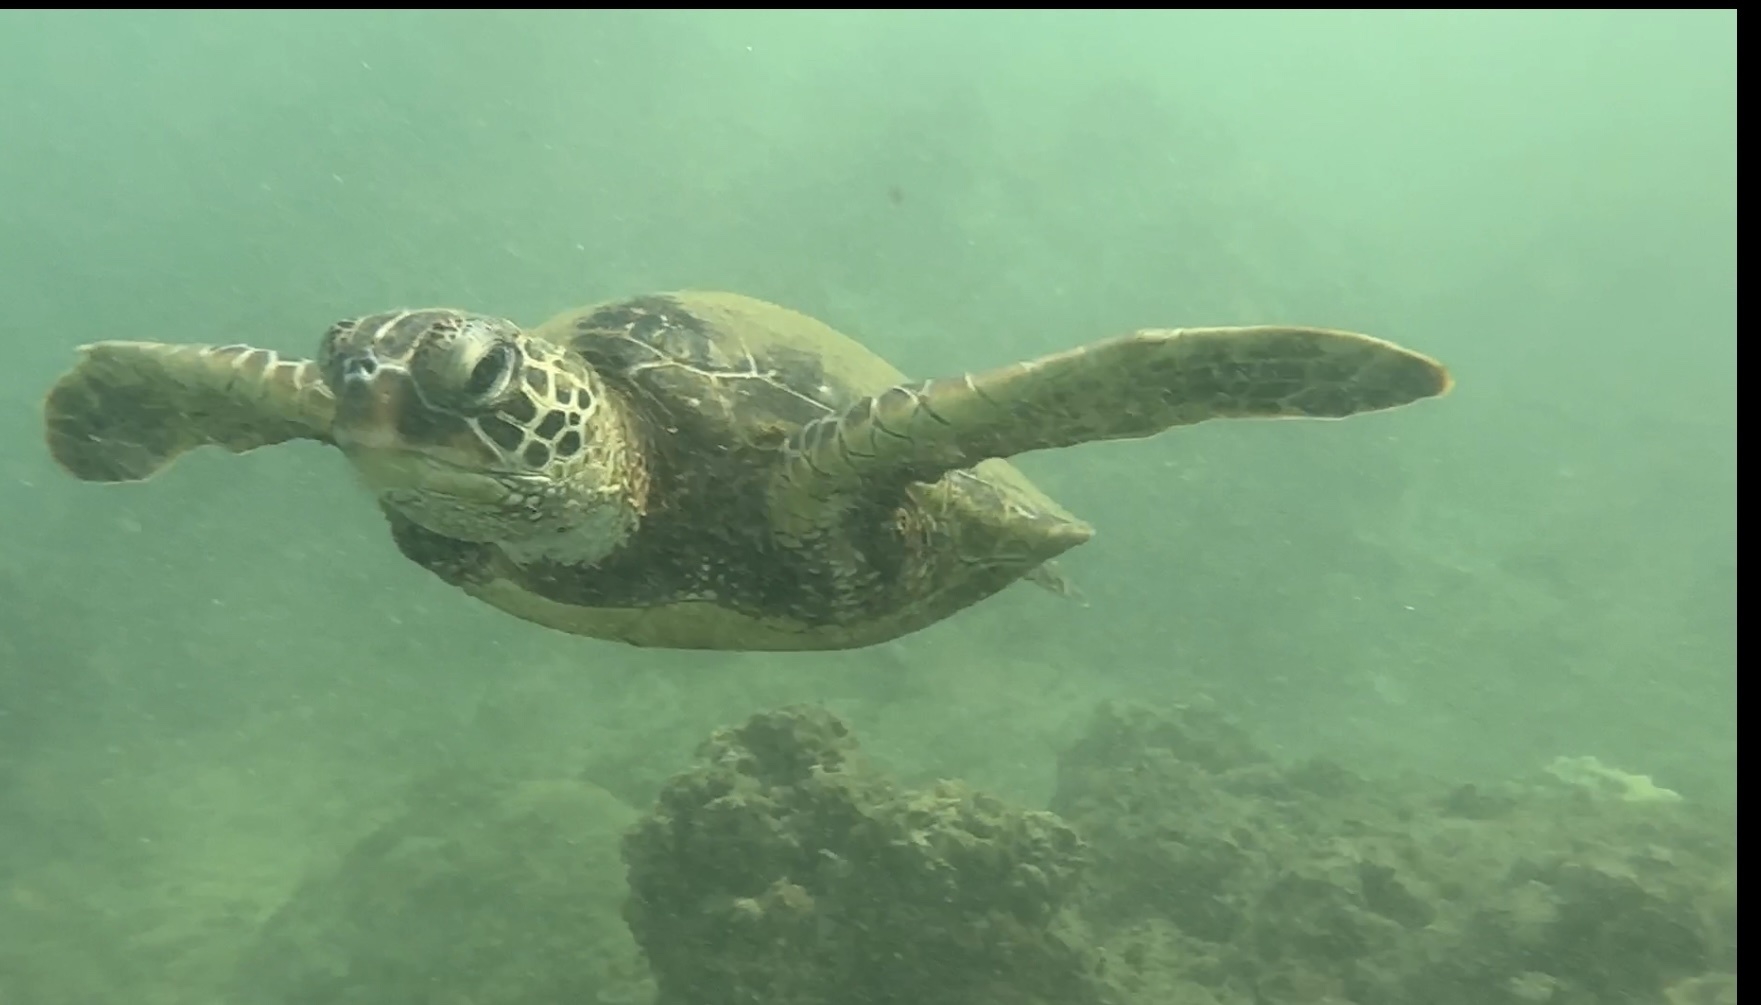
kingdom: Animalia
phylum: Chordata
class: Testudines
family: Cheloniidae
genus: Chelonia
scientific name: Chelonia mydas
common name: Green turtle
